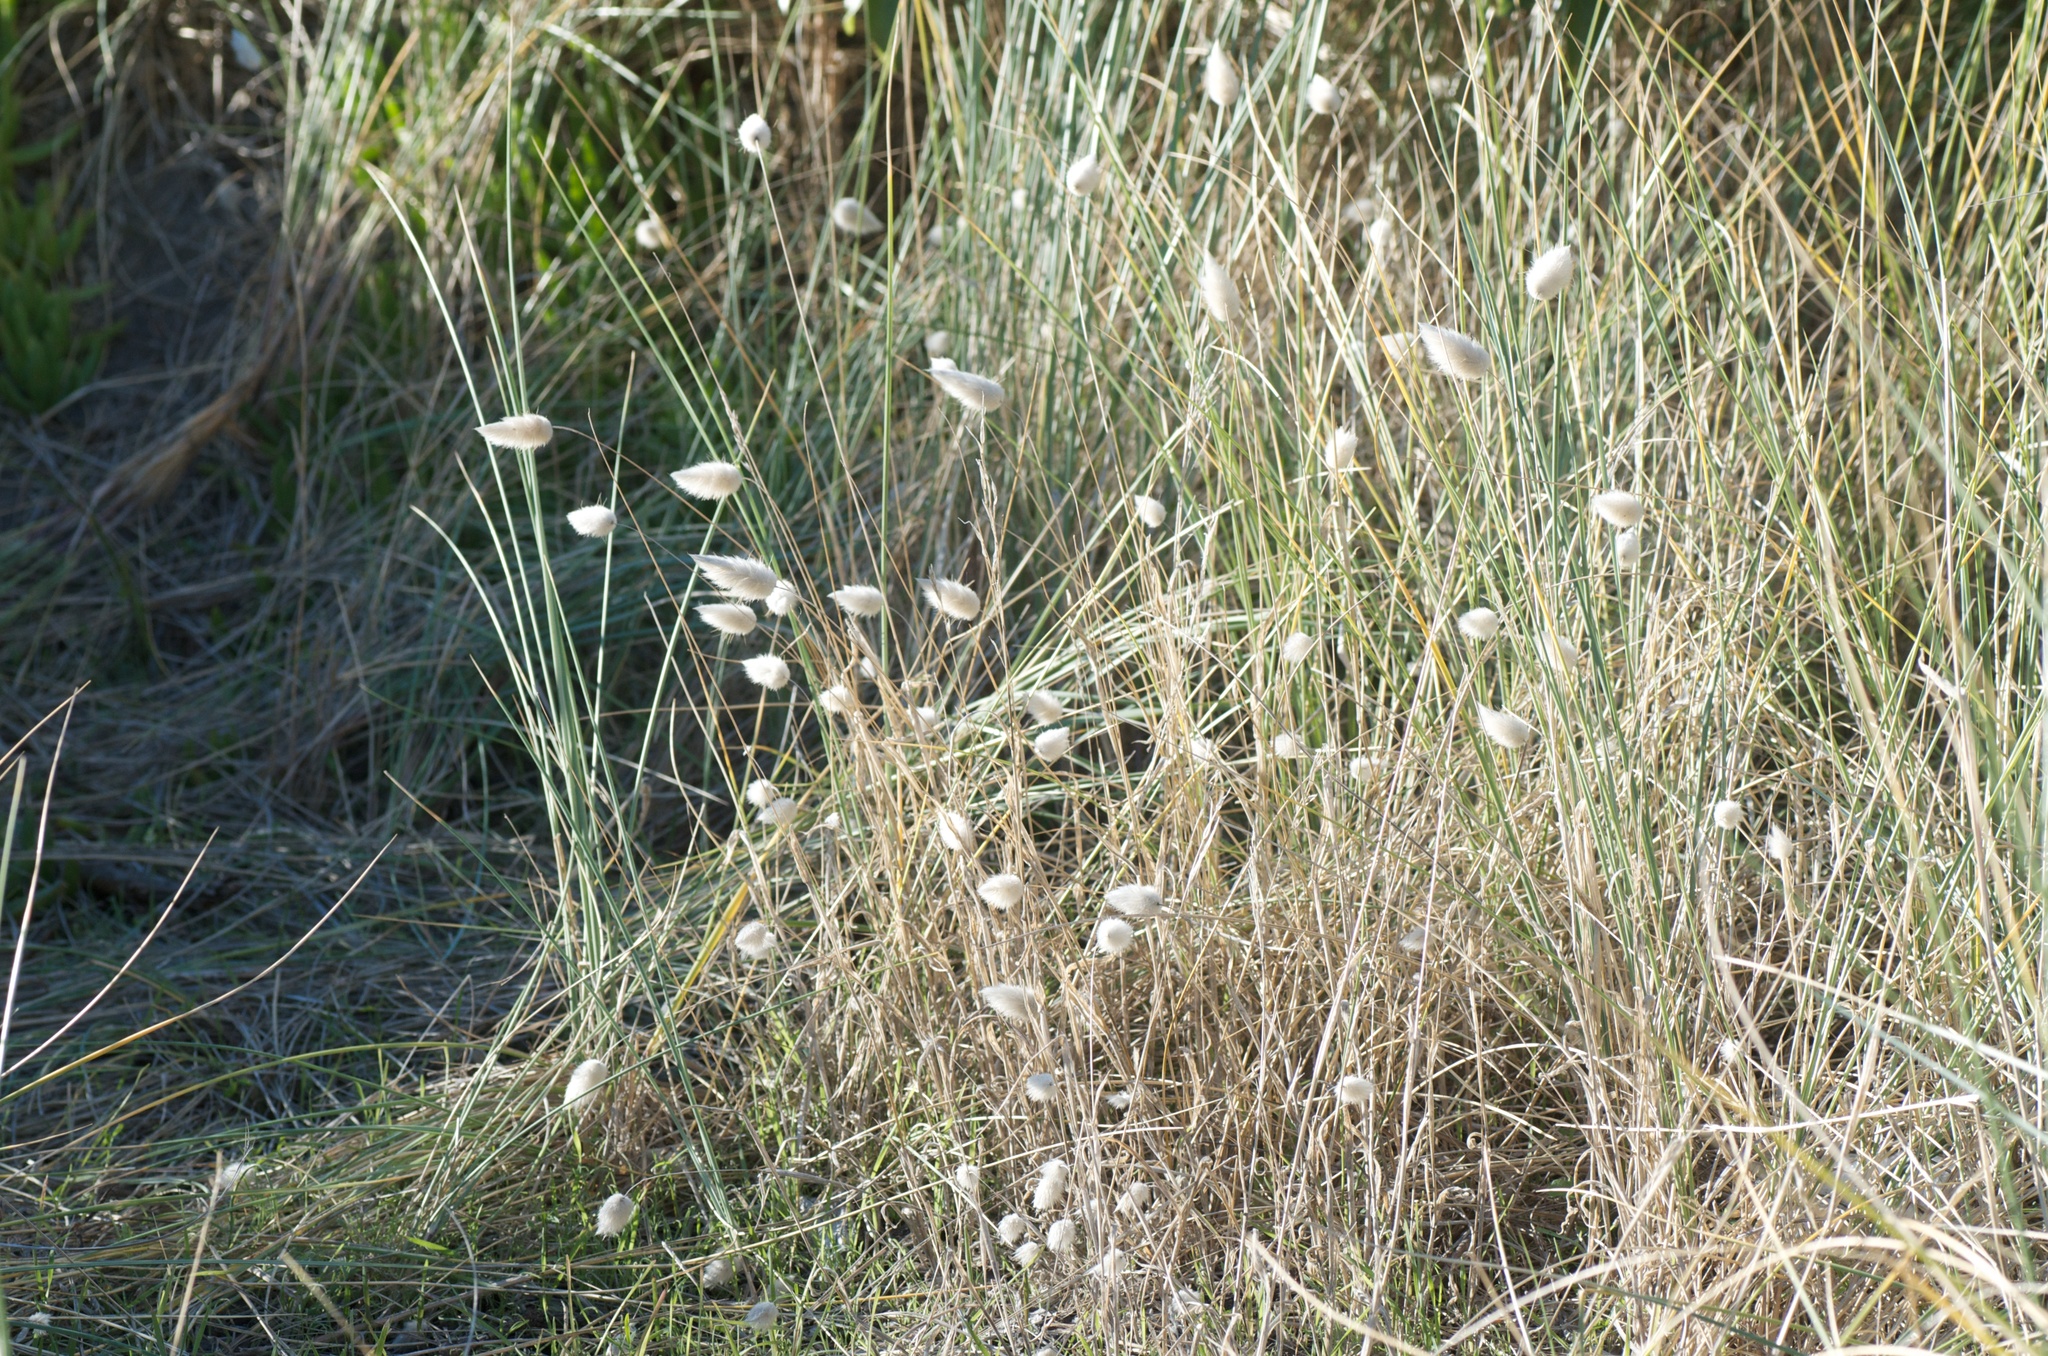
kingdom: Plantae
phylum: Tracheophyta
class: Liliopsida
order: Poales
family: Poaceae
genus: Lagurus
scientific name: Lagurus ovatus
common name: Hare's-tail
